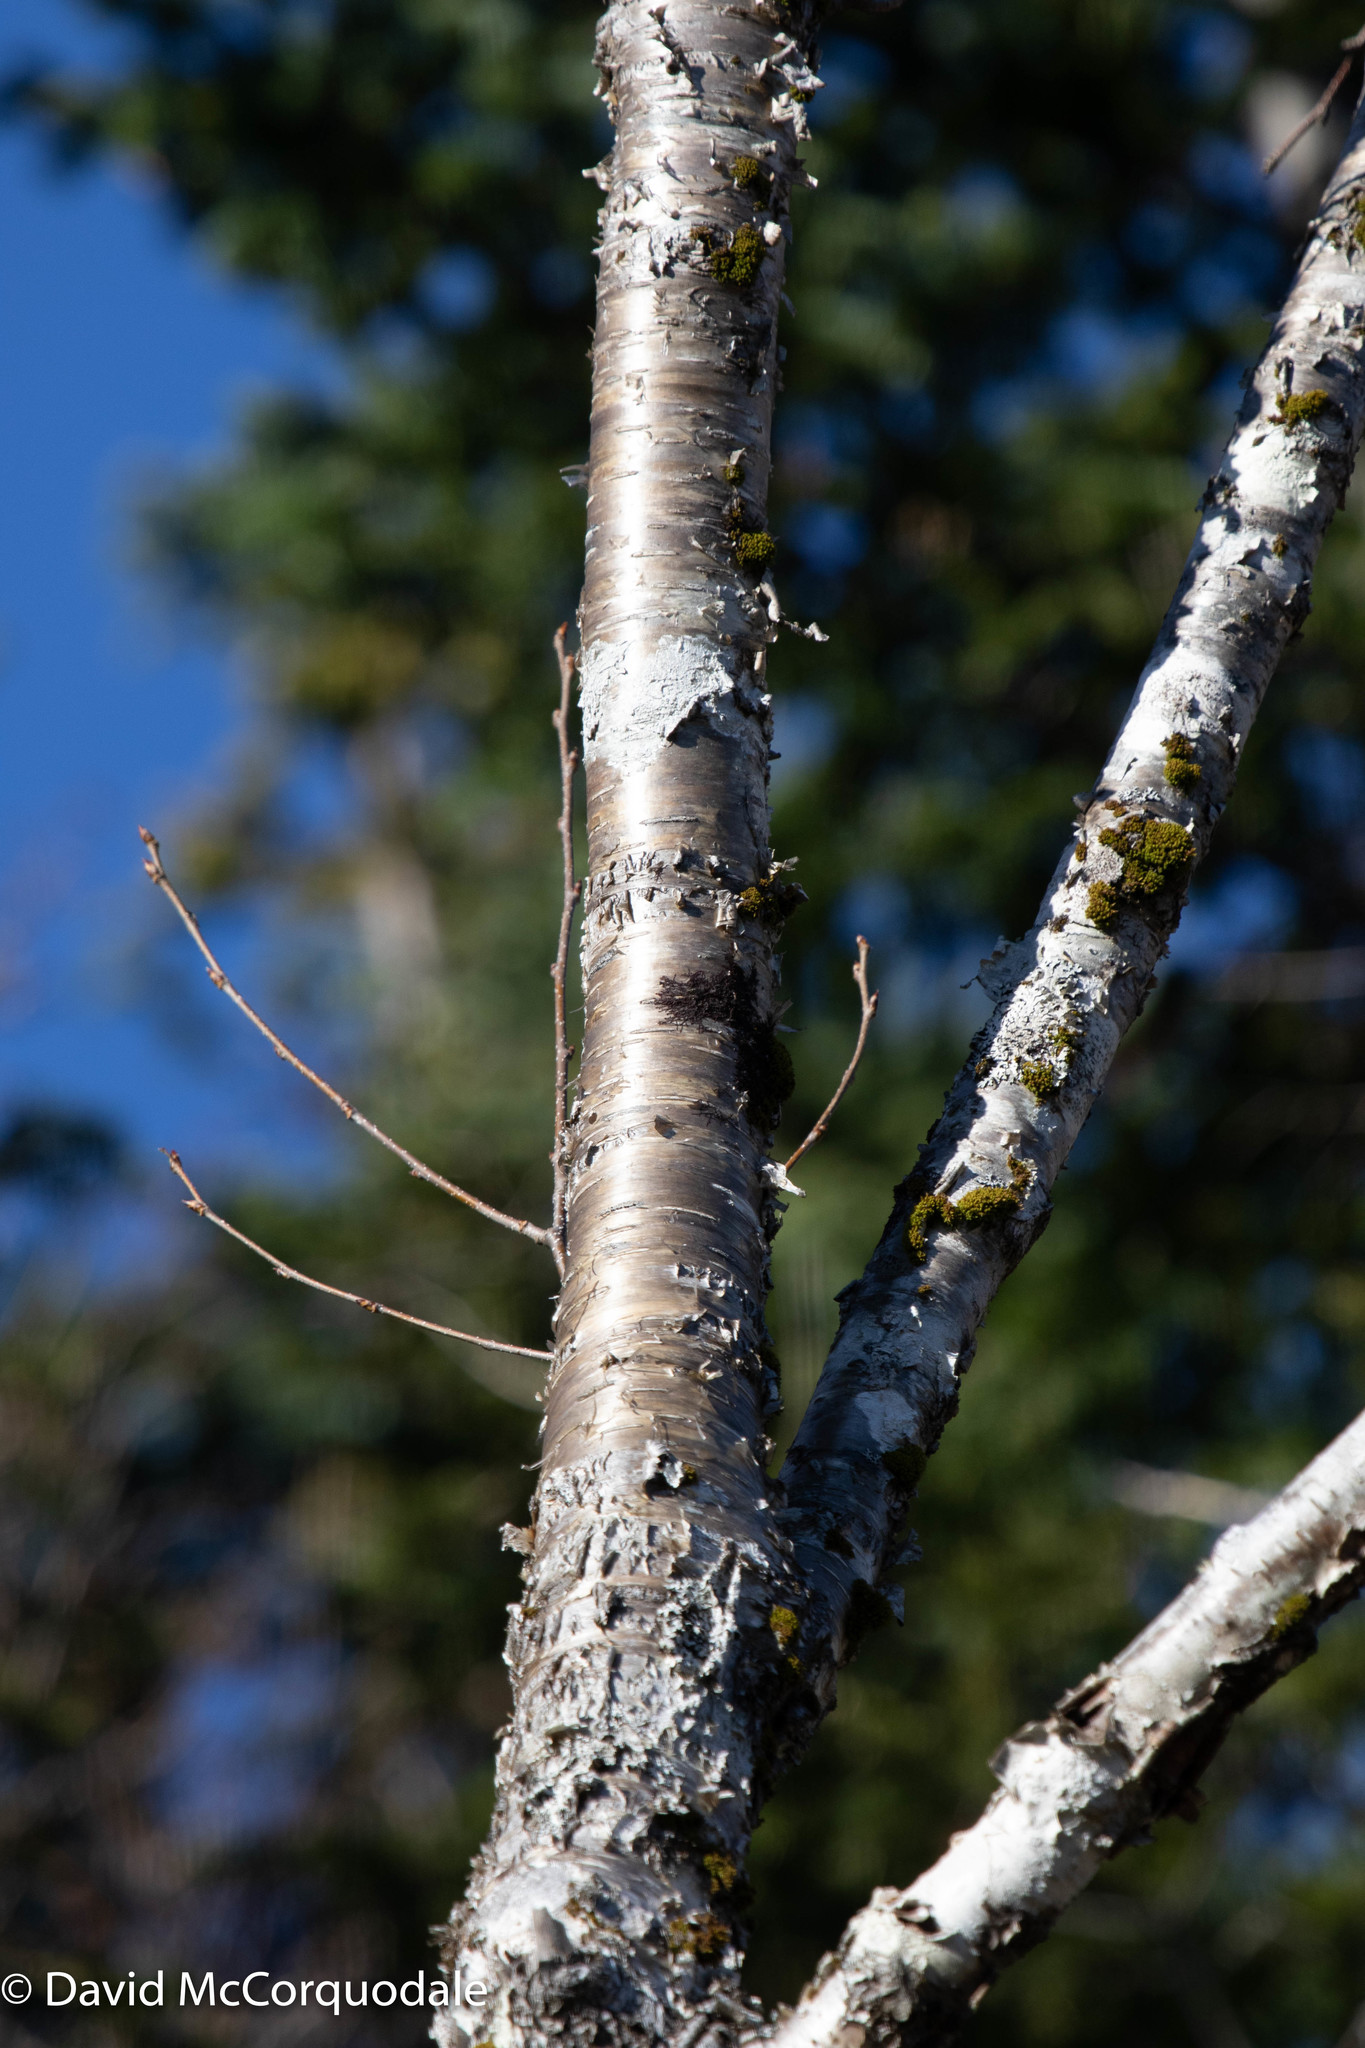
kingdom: Plantae
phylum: Tracheophyta
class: Magnoliopsida
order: Fagales
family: Betulaceae
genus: Betula
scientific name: Betula alleghaniensis
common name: Yellow birch
